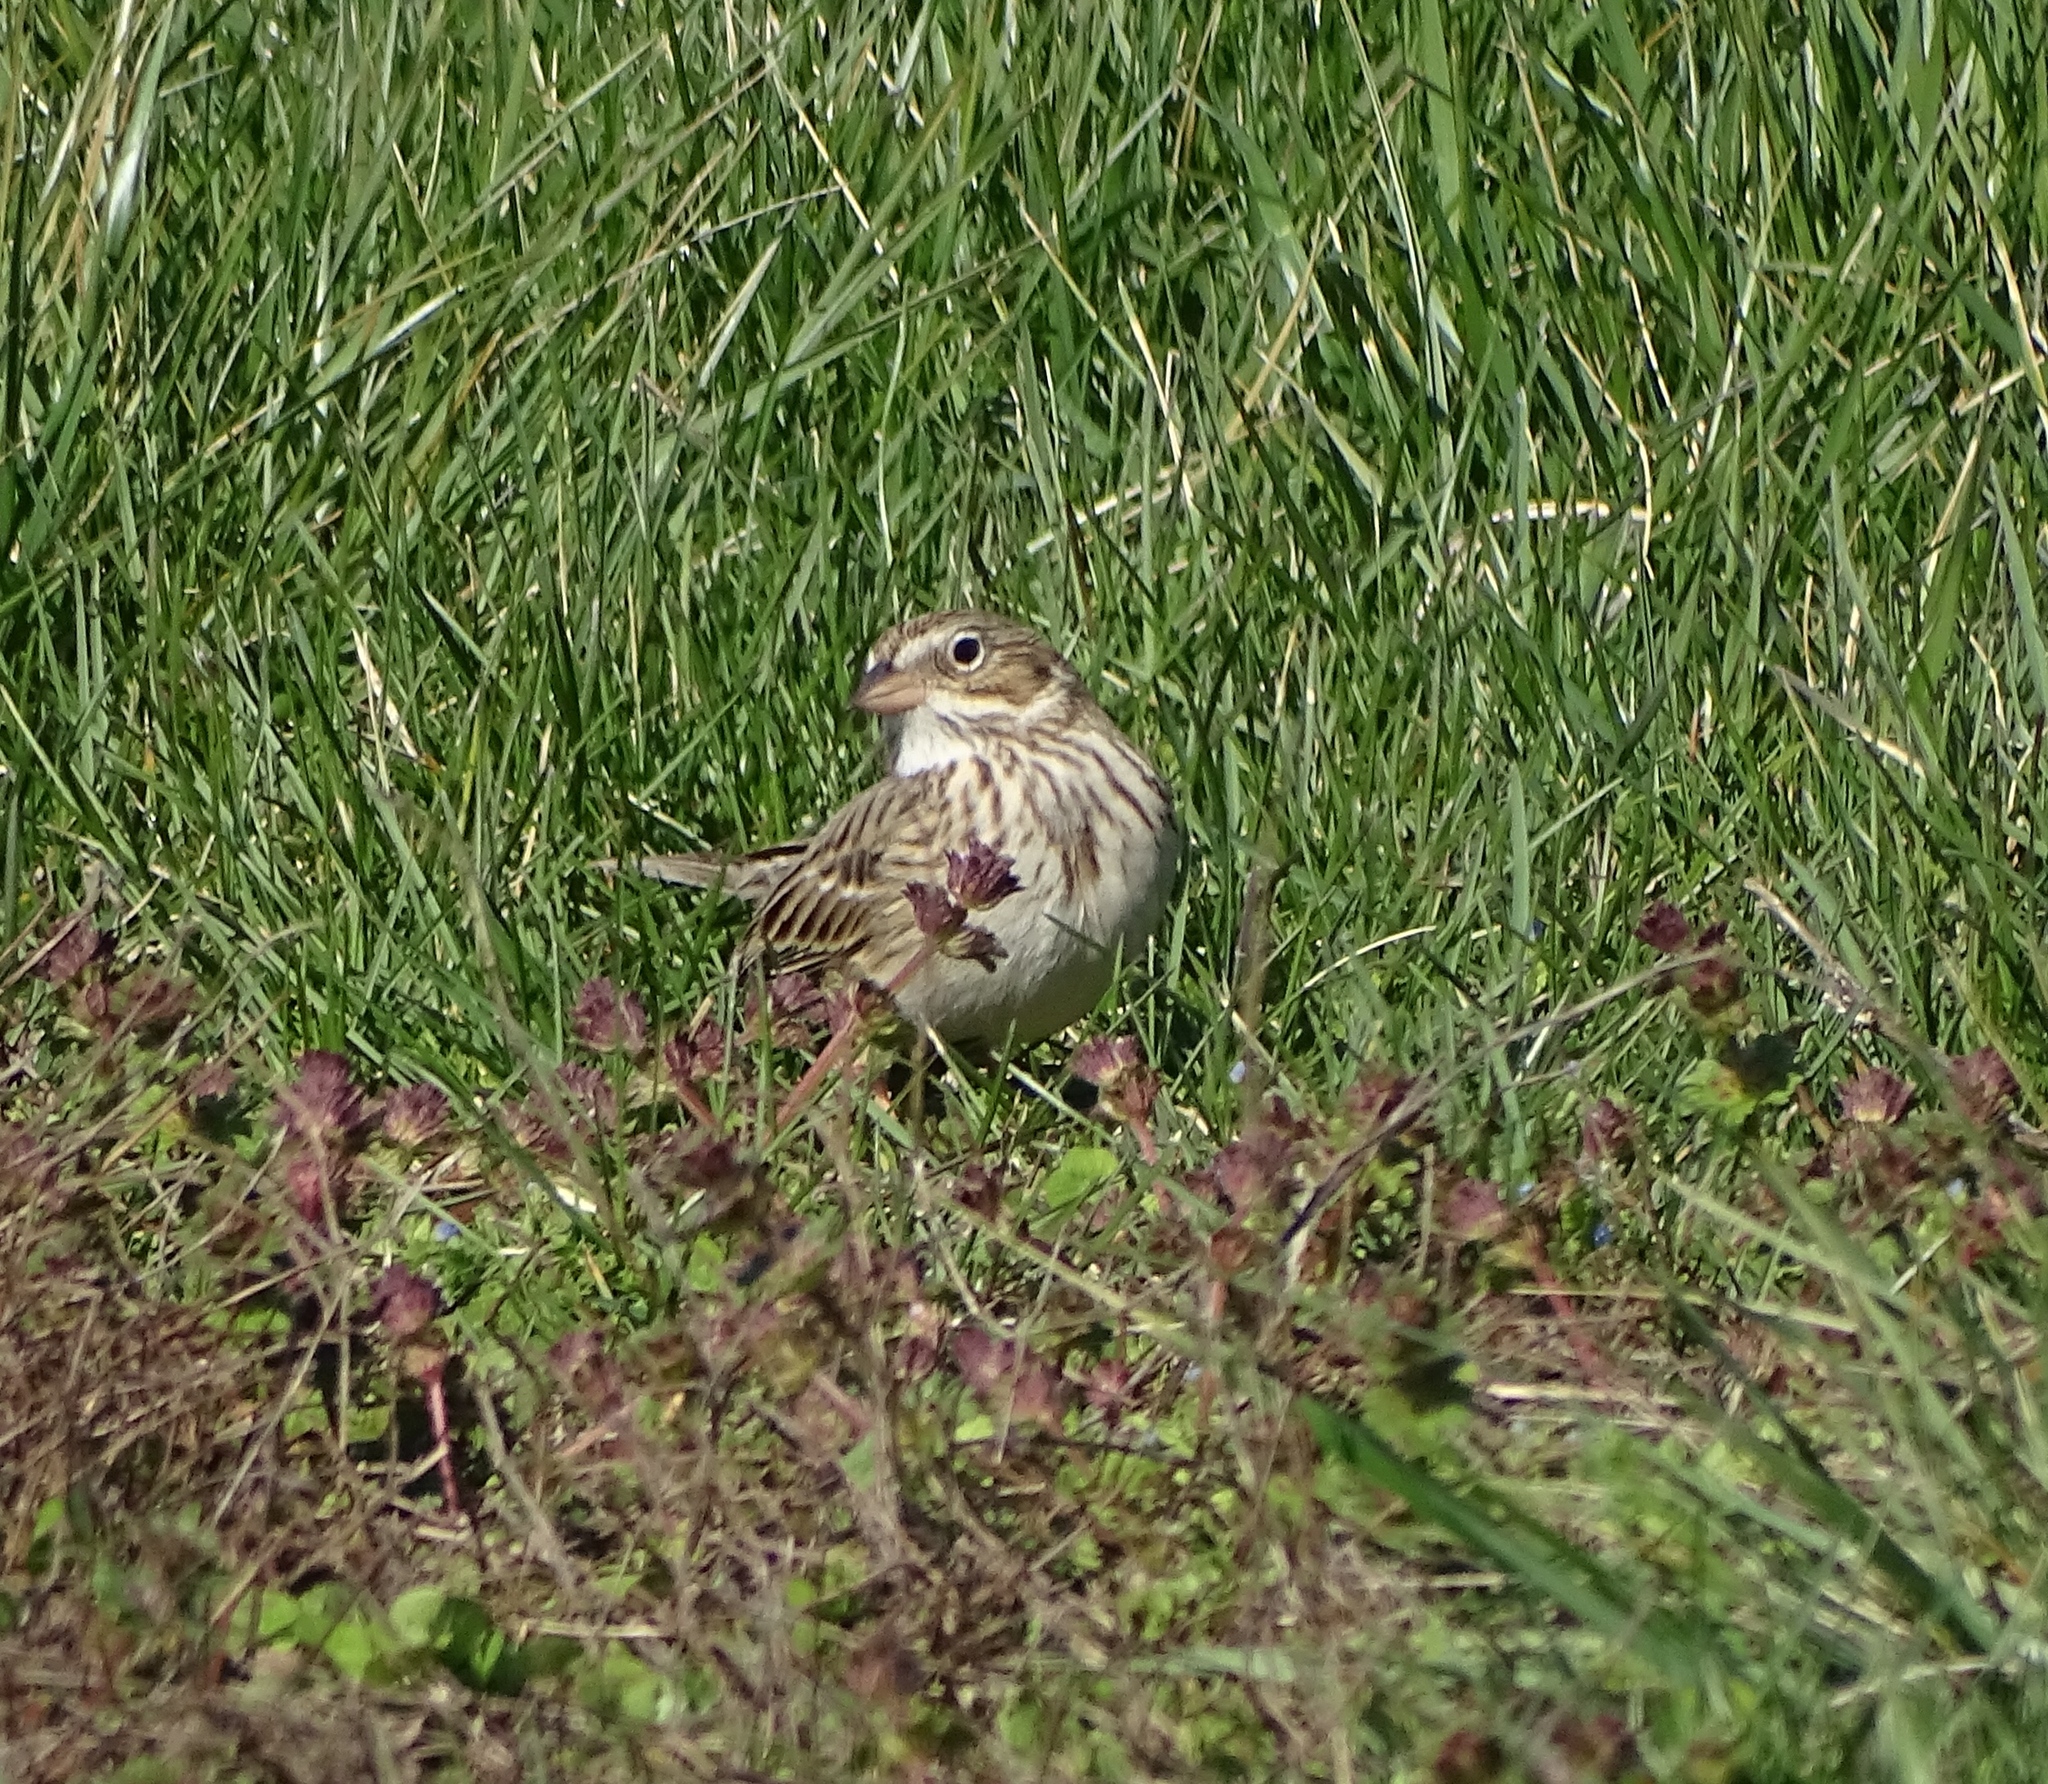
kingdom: Animalia
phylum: Chordata
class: Aves
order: Passeriformes
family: Passerellidae
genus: Pooecetes
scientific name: Pooecetes gramineus
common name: Vesper sparrow
